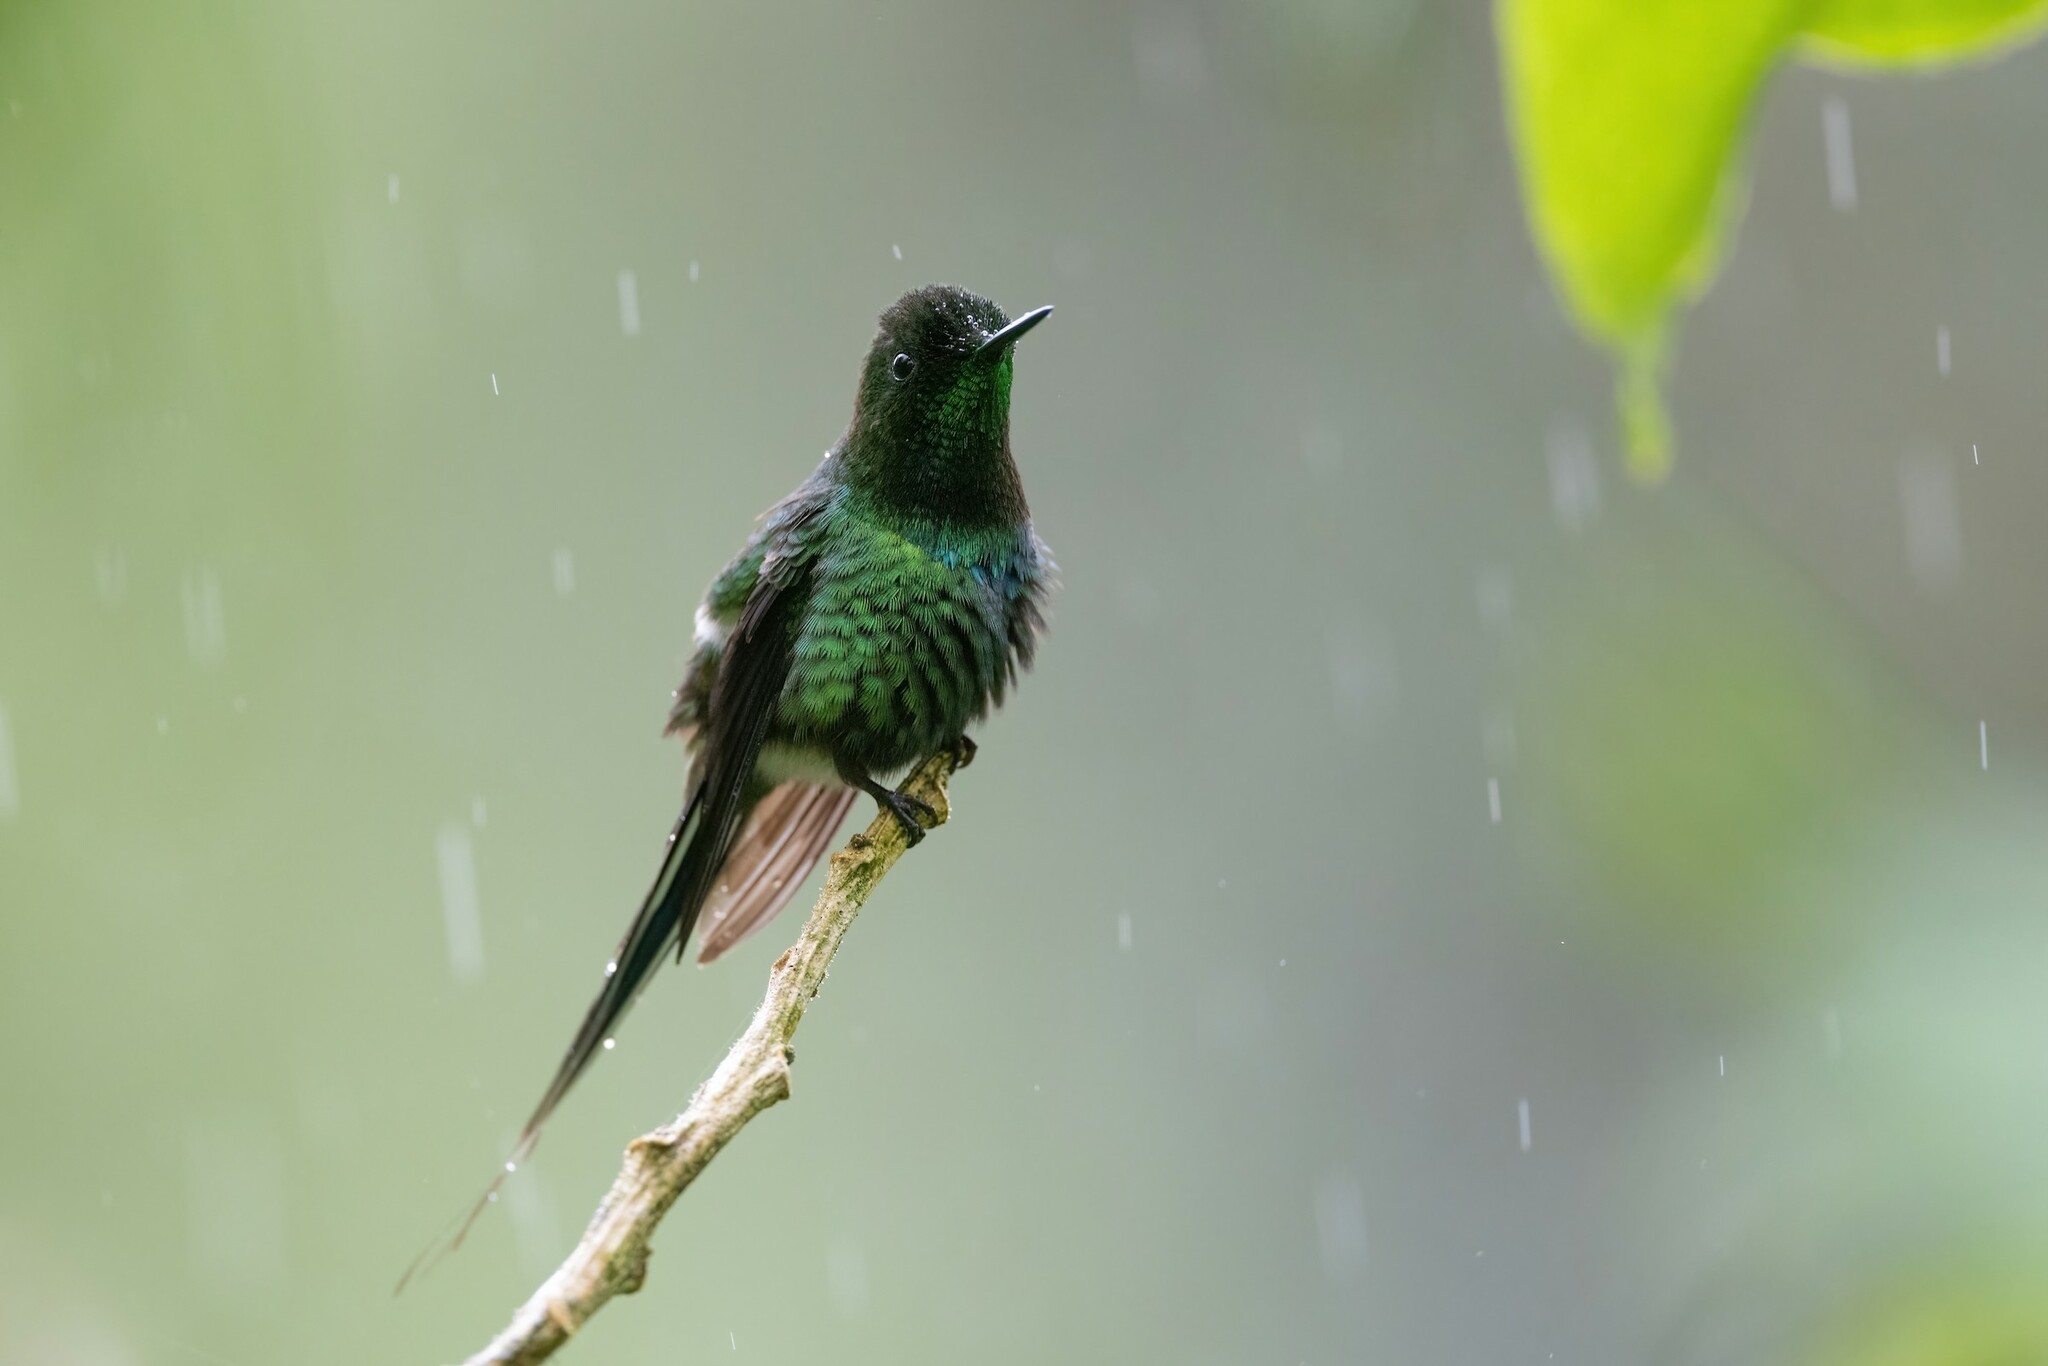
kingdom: Animalia
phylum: Chordata
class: Aves
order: Apodiformes
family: Trochilidae
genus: Discosura
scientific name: Discosura conversii
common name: Green thorntail
